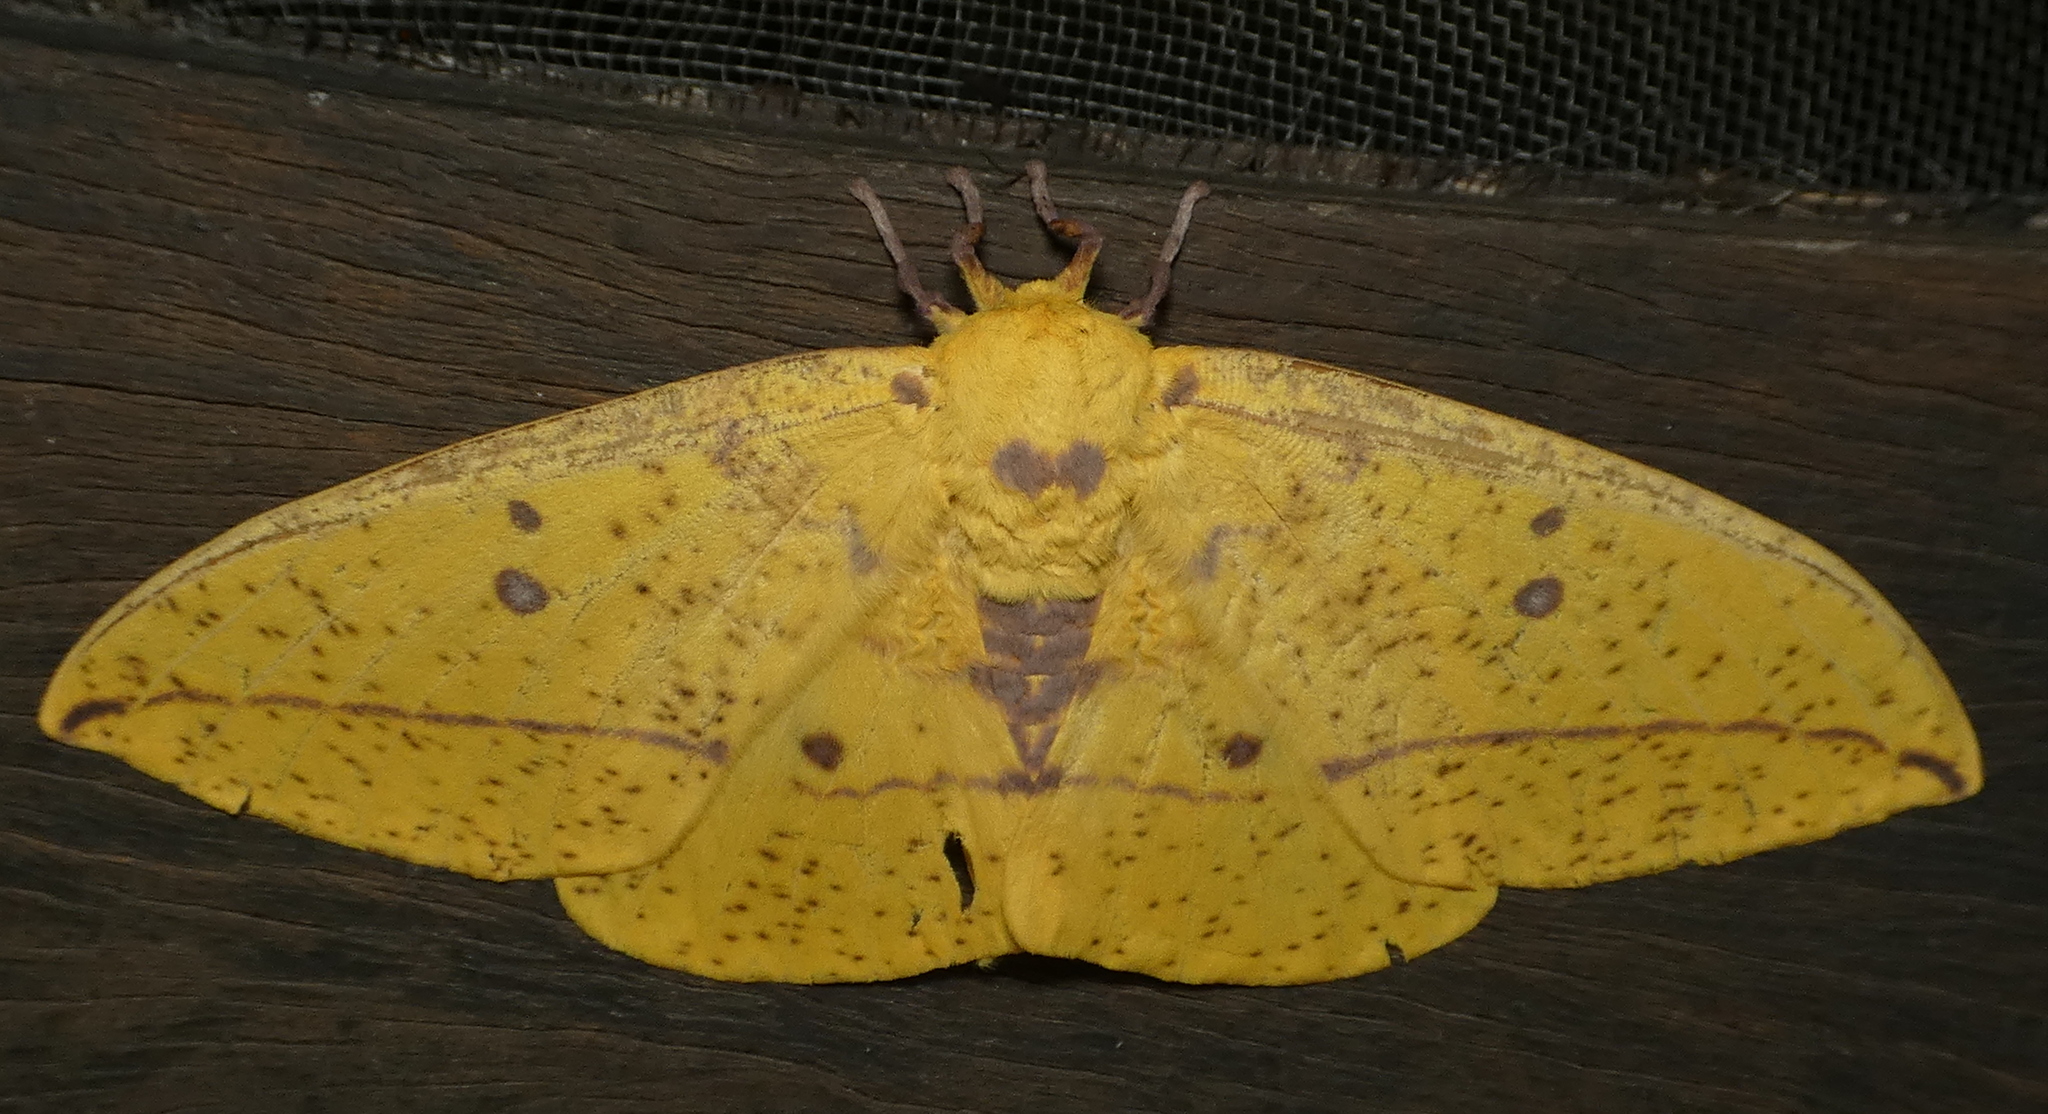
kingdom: Animalia
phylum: Arthropoda
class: Insecta
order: Lepidoptera
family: Saturniidae
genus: Eacles
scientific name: Eacles imperialis
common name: Imperial moth
